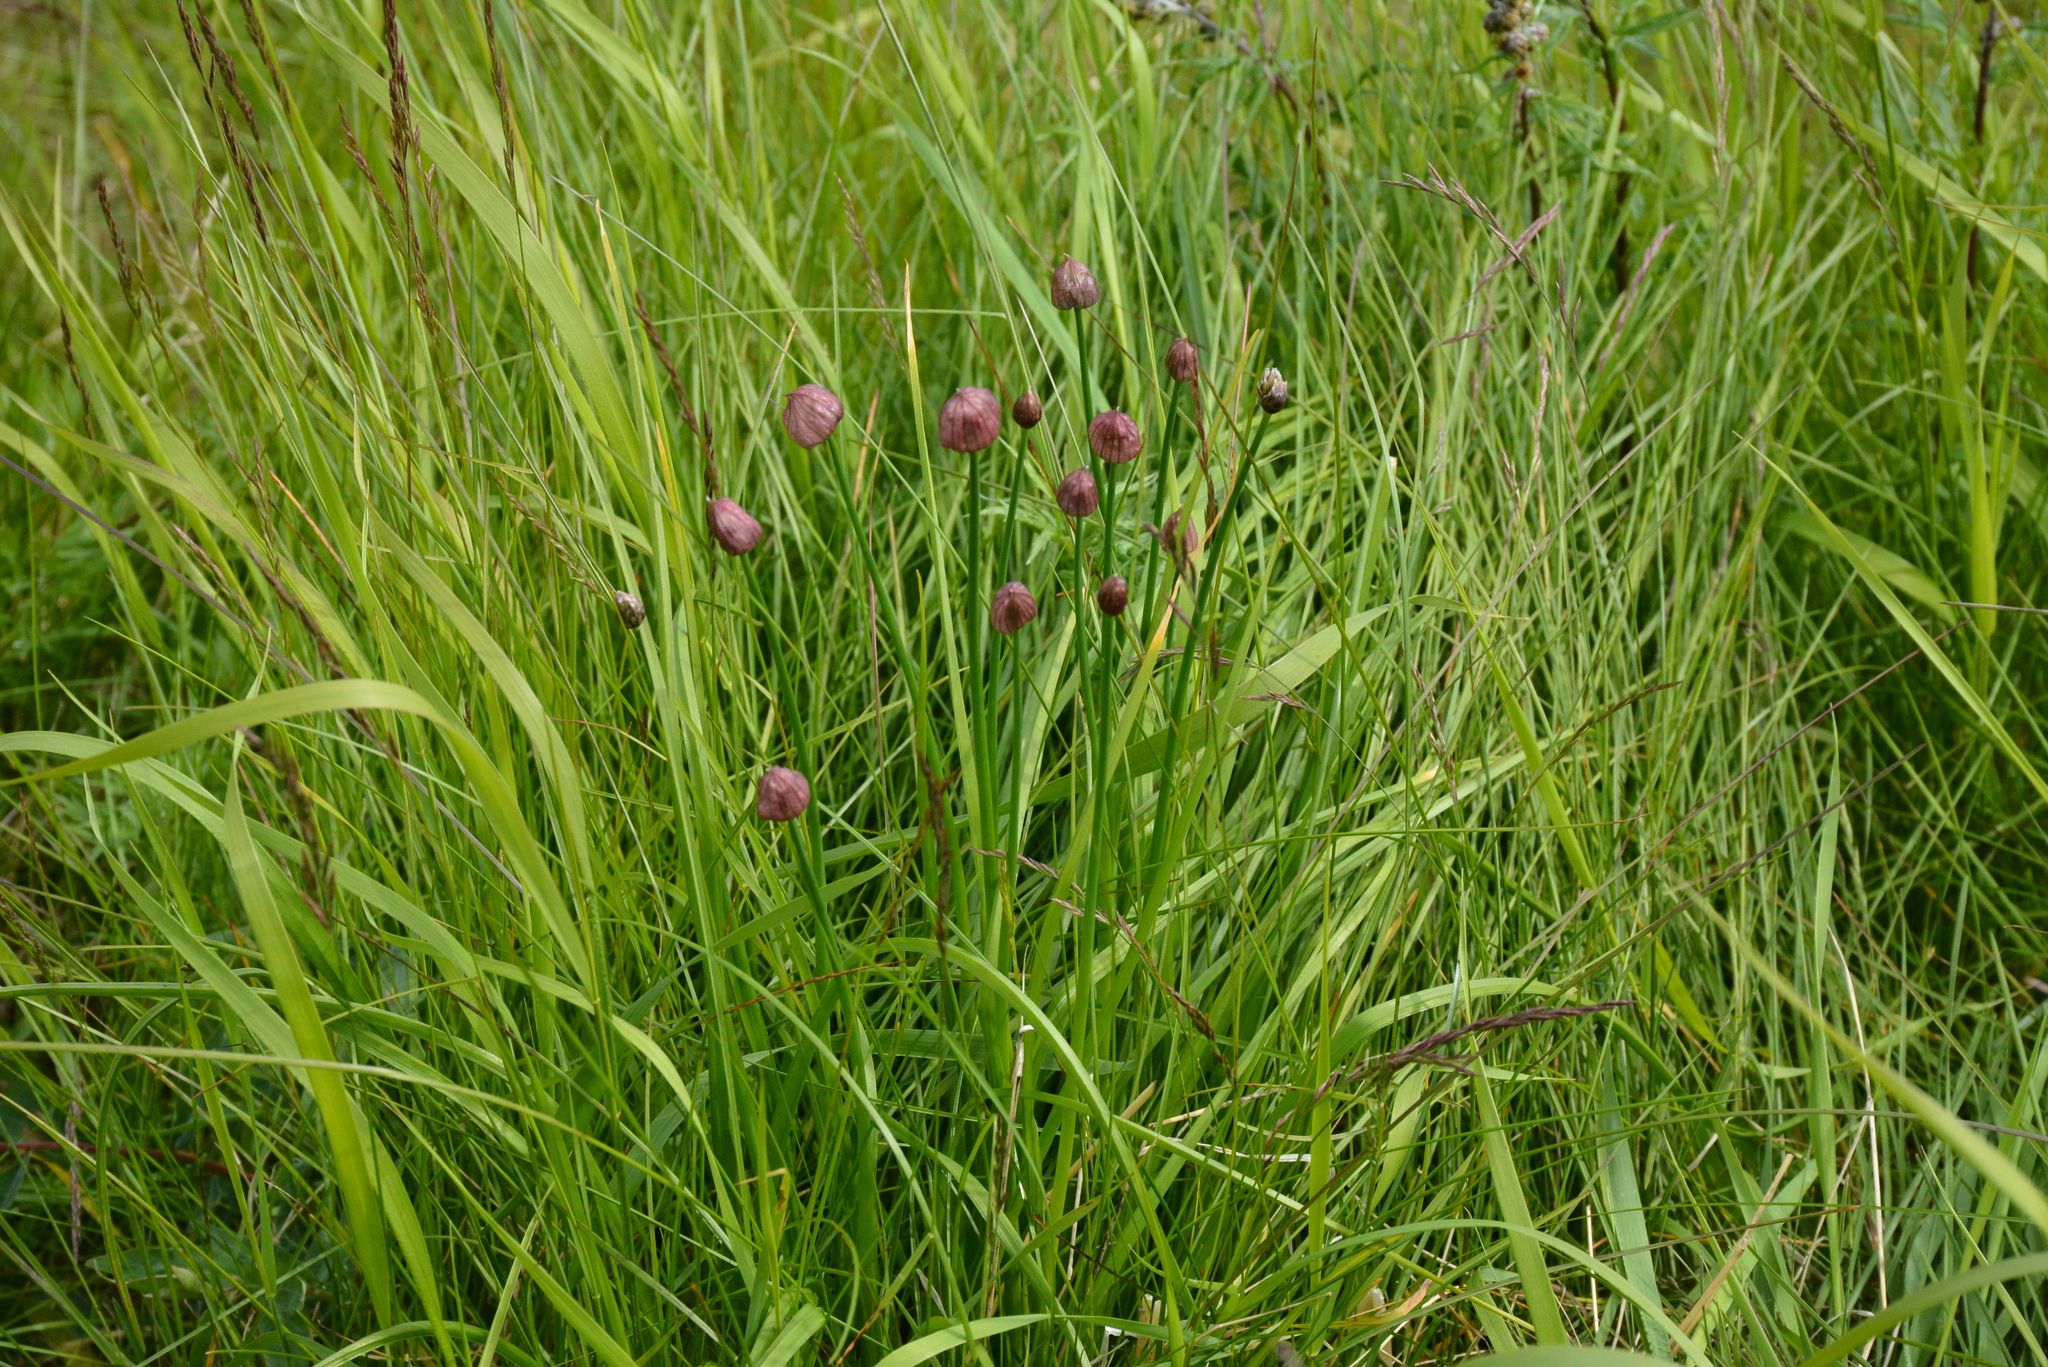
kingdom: Plantae
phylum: Tracheophyta
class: Liliopsida
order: Asparagales
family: Amaryllidaceae
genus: Allium
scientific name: Allium schoenoprasum
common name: Chives
